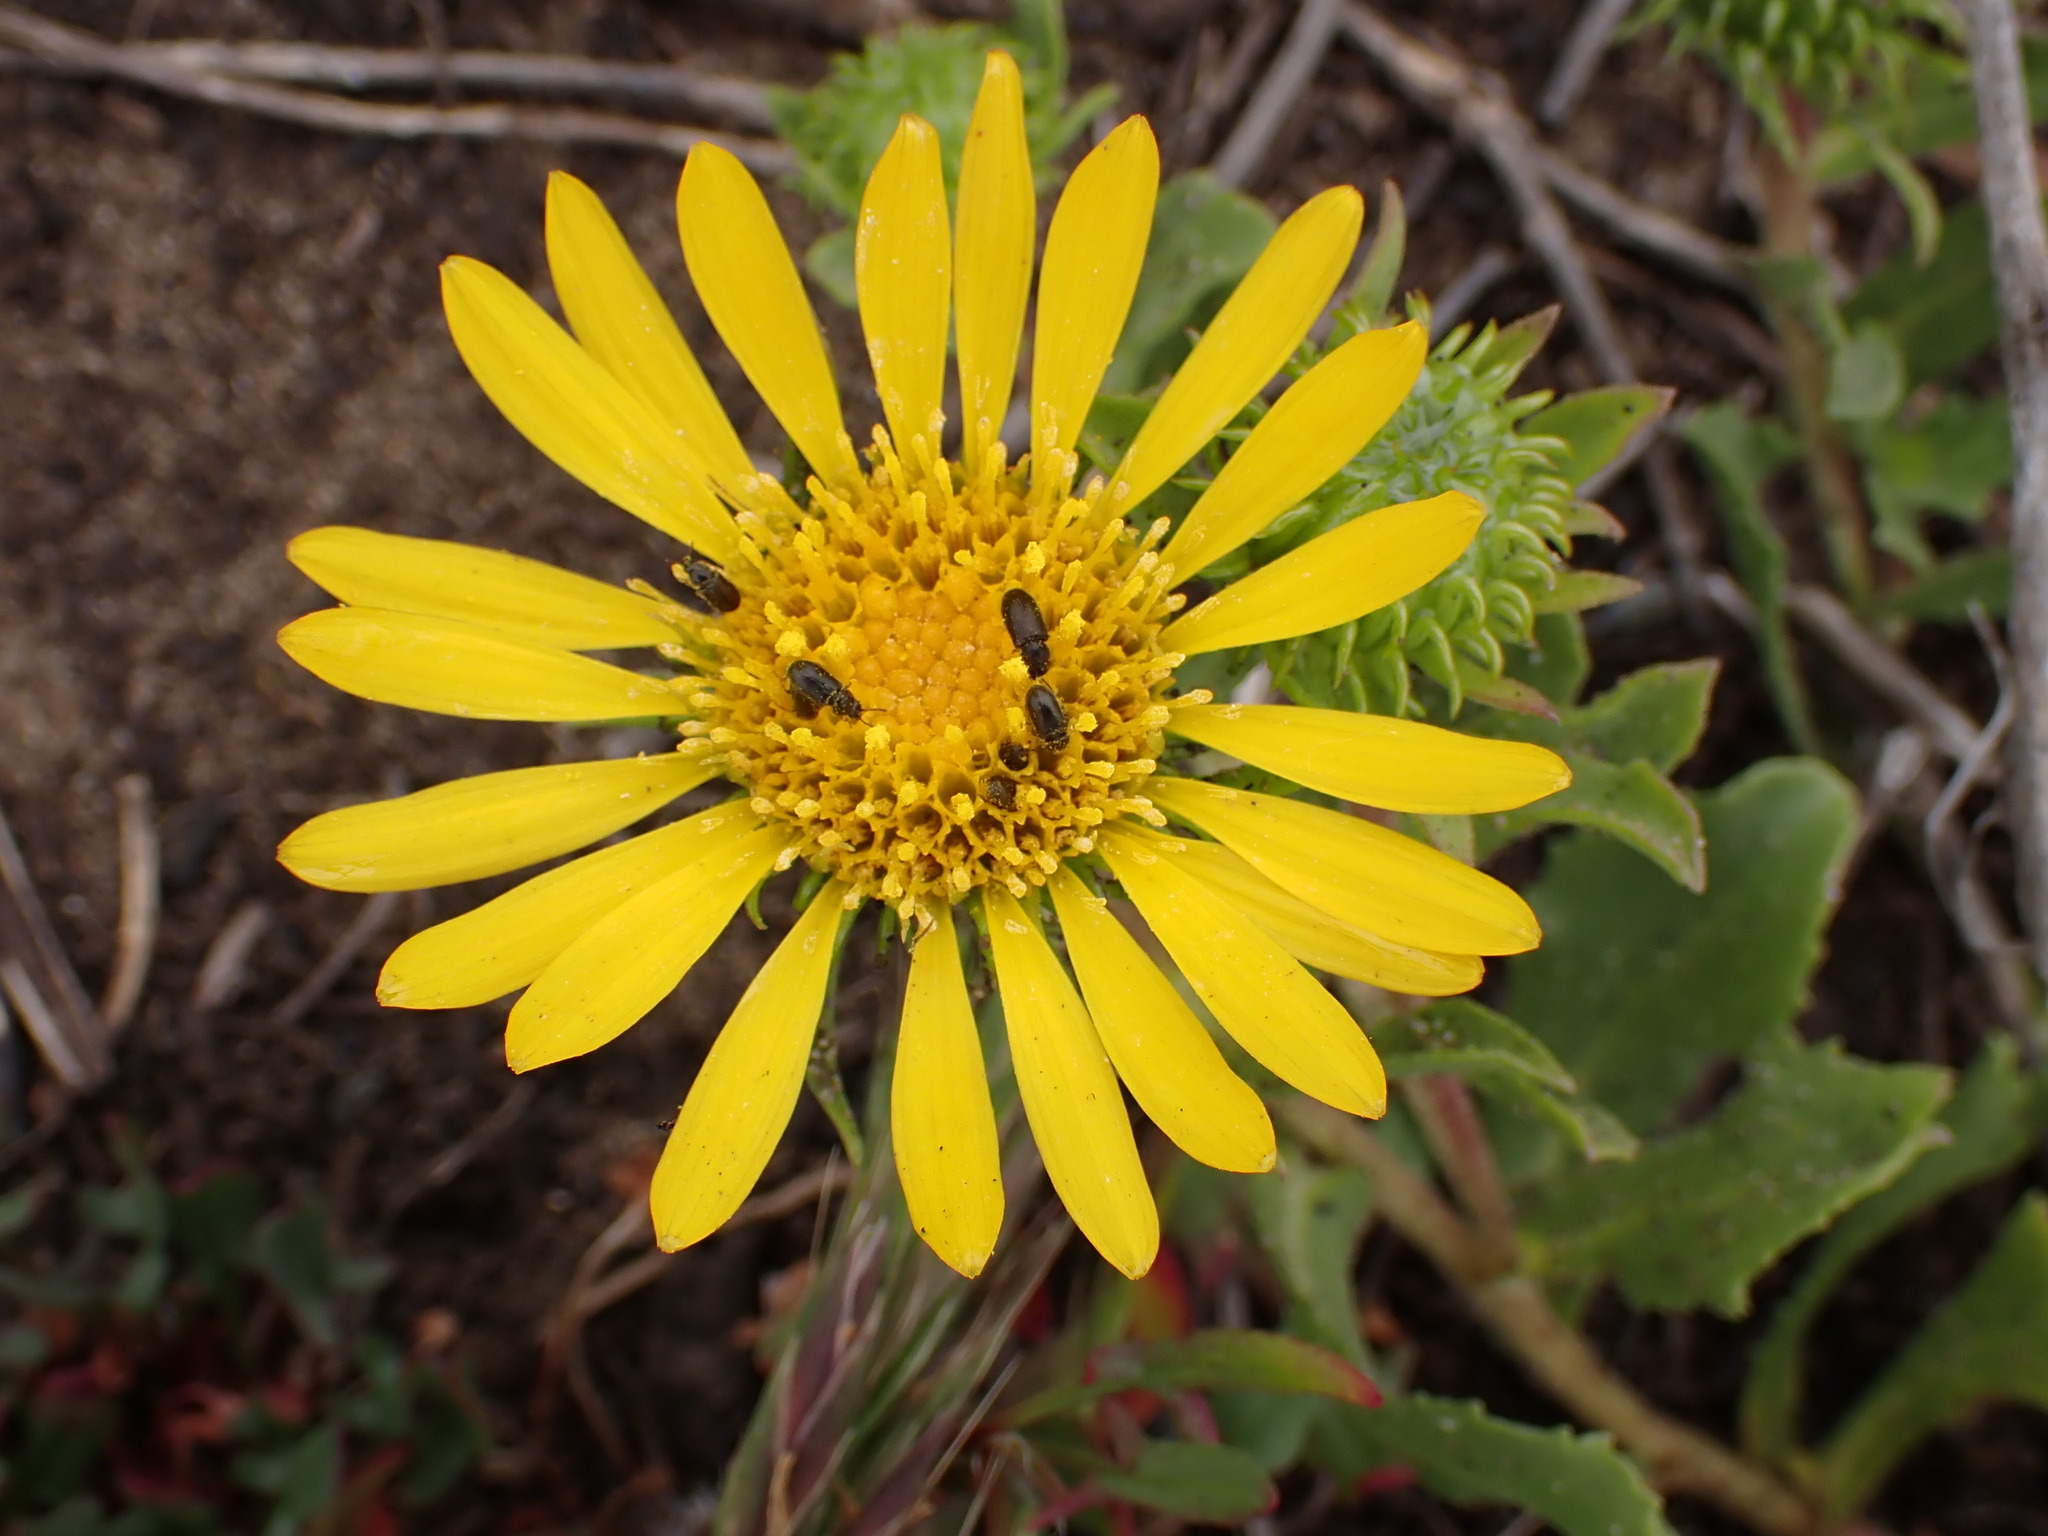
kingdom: Plantae
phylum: Tracheophyta
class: Magnoliopsida
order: Asterales
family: Asteraceae
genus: Grindelia
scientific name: Grindelia hirsutula
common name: Hairy gumweed
